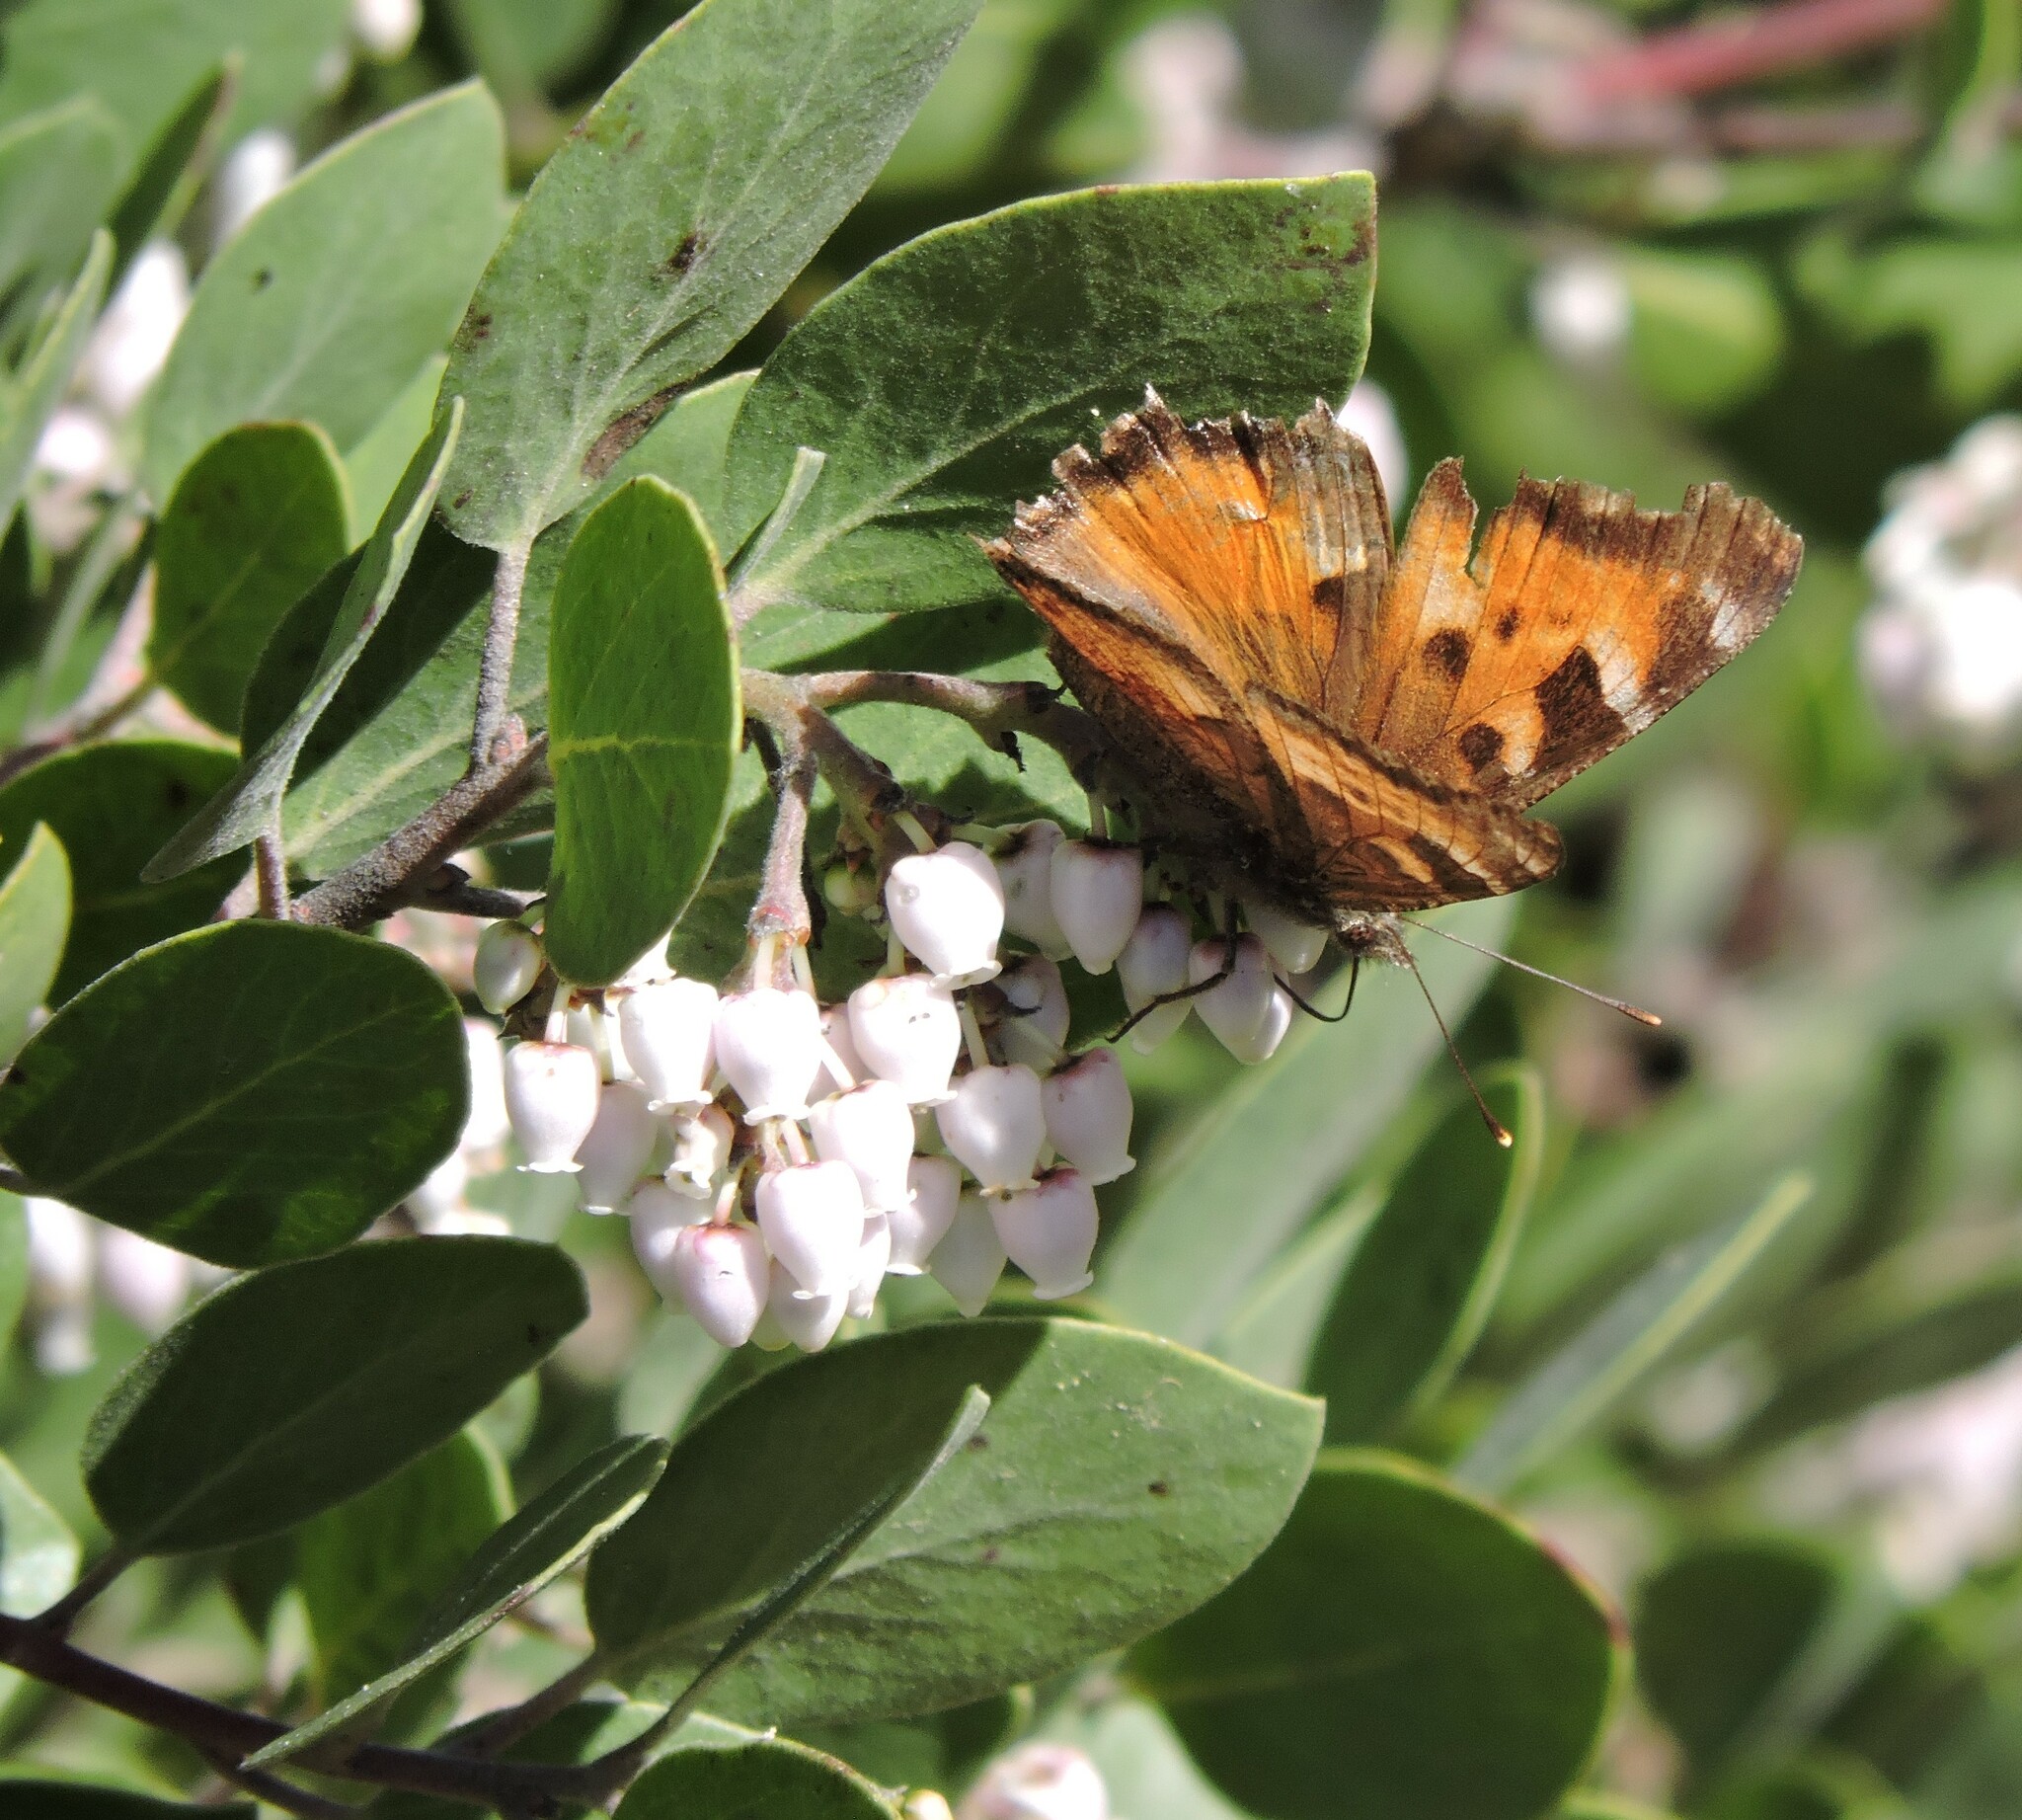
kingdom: Animalia
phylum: Arthropoda
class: Insecta
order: Lepidoptera
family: Nymphalidae
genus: Nymphalis
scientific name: Nymphalis californica
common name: California tortoiseshell
